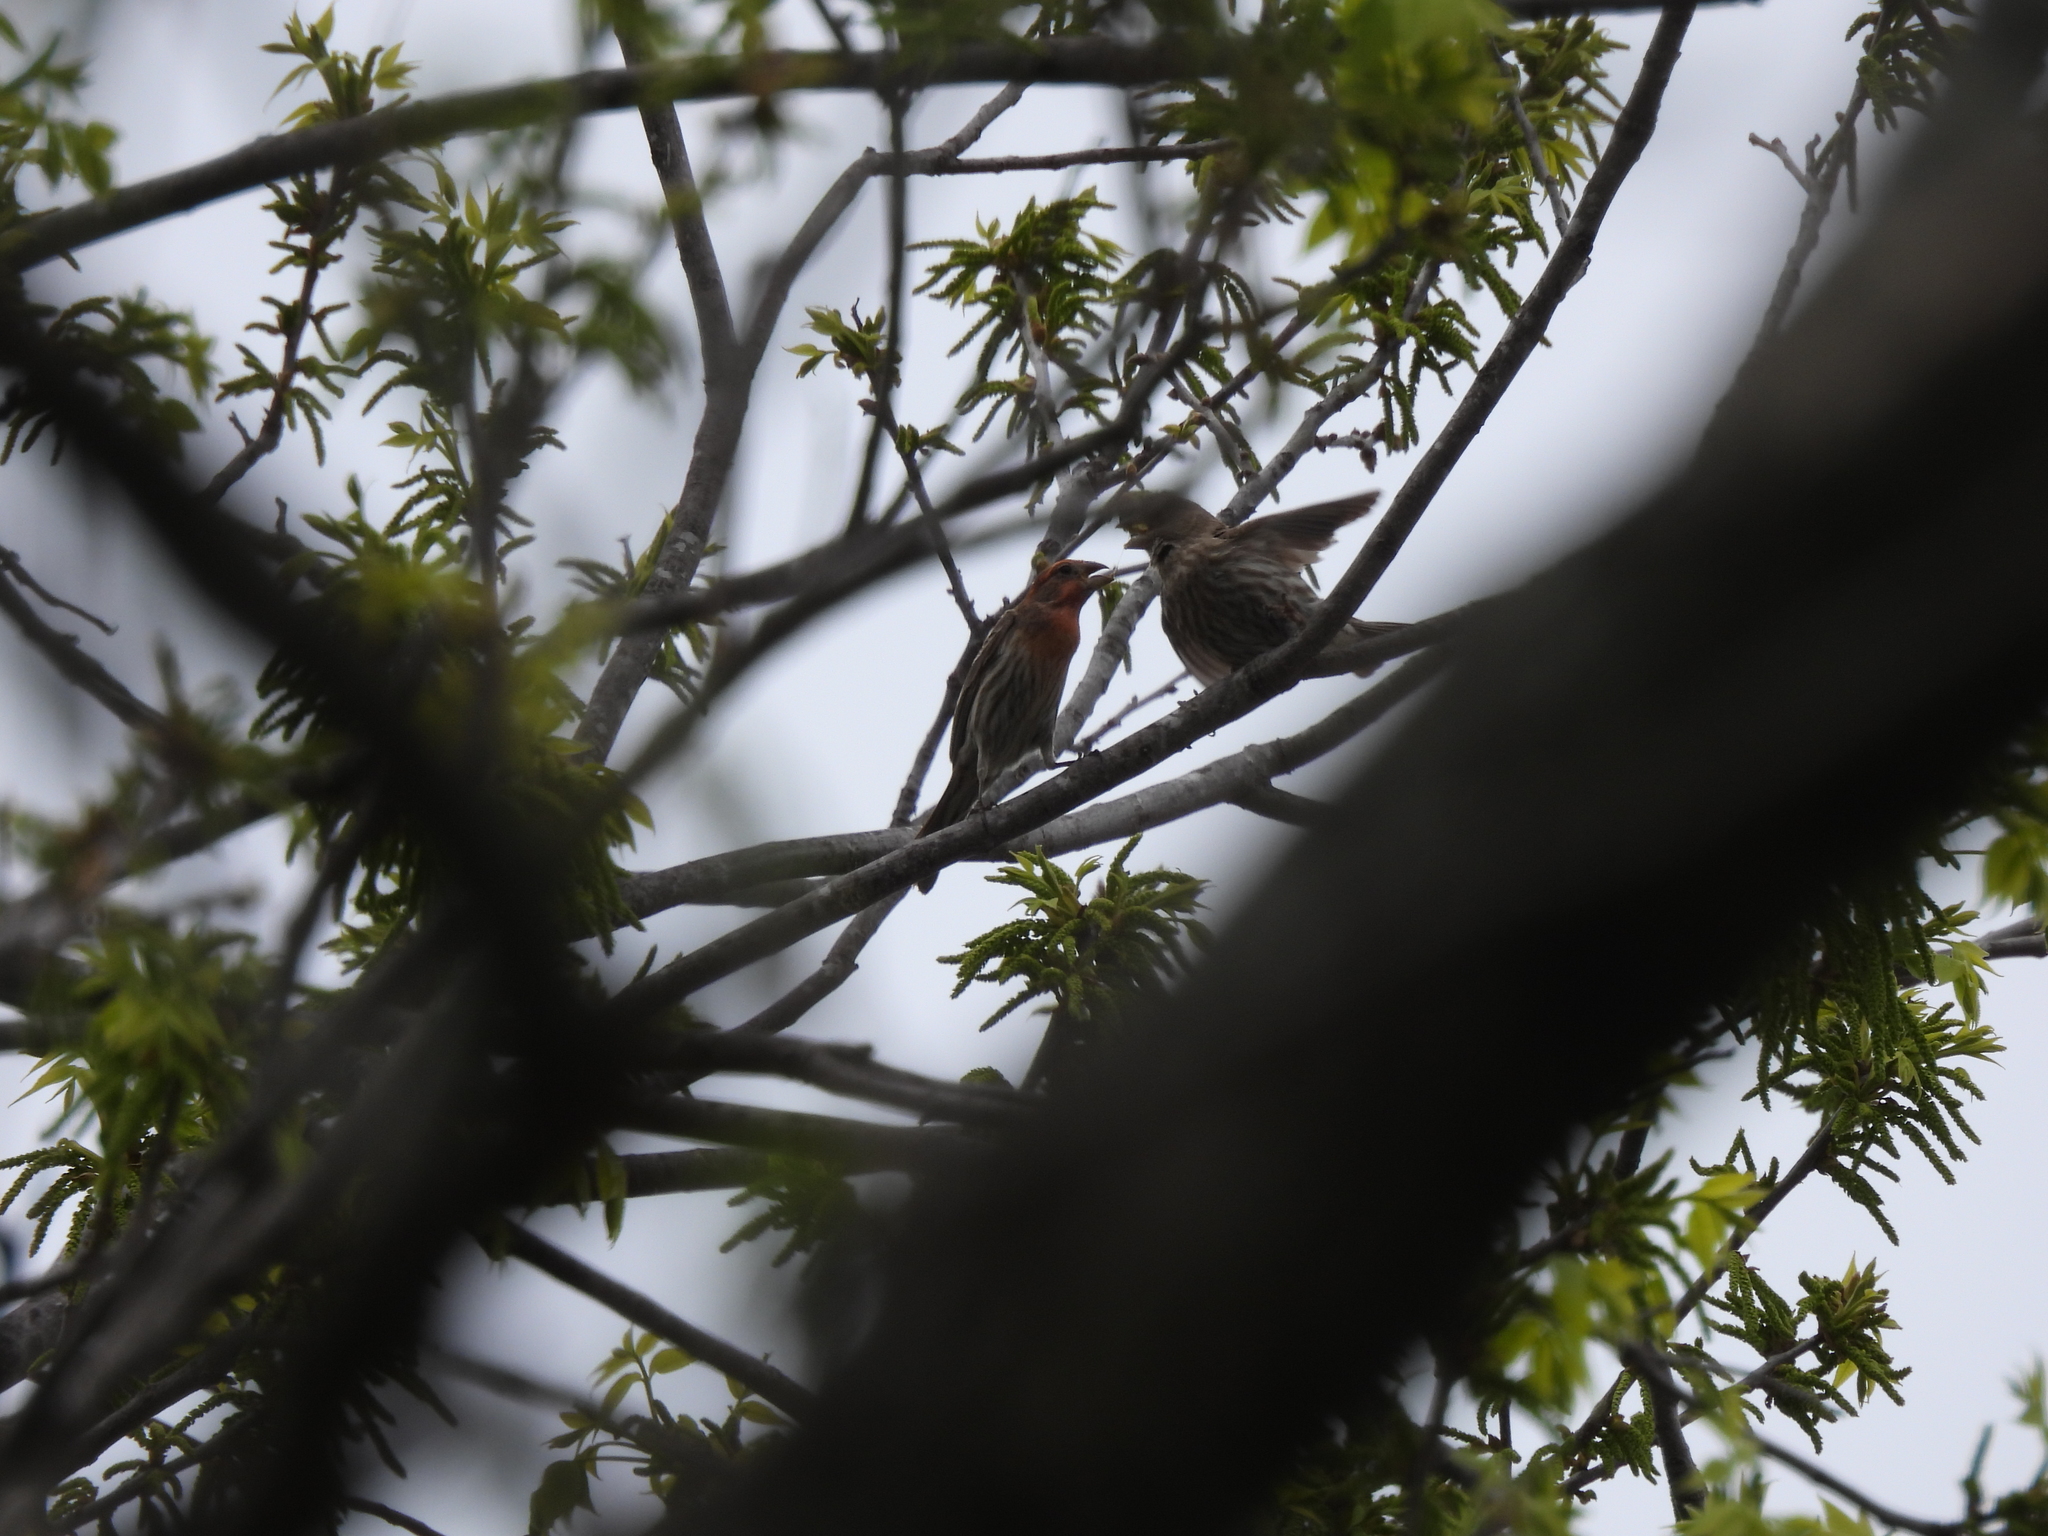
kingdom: Animalia
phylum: Chordata
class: Aves
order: Passeriformes
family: Fringillidae
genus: Haemorhous
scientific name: Haemorhous mexicanus
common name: House finch
